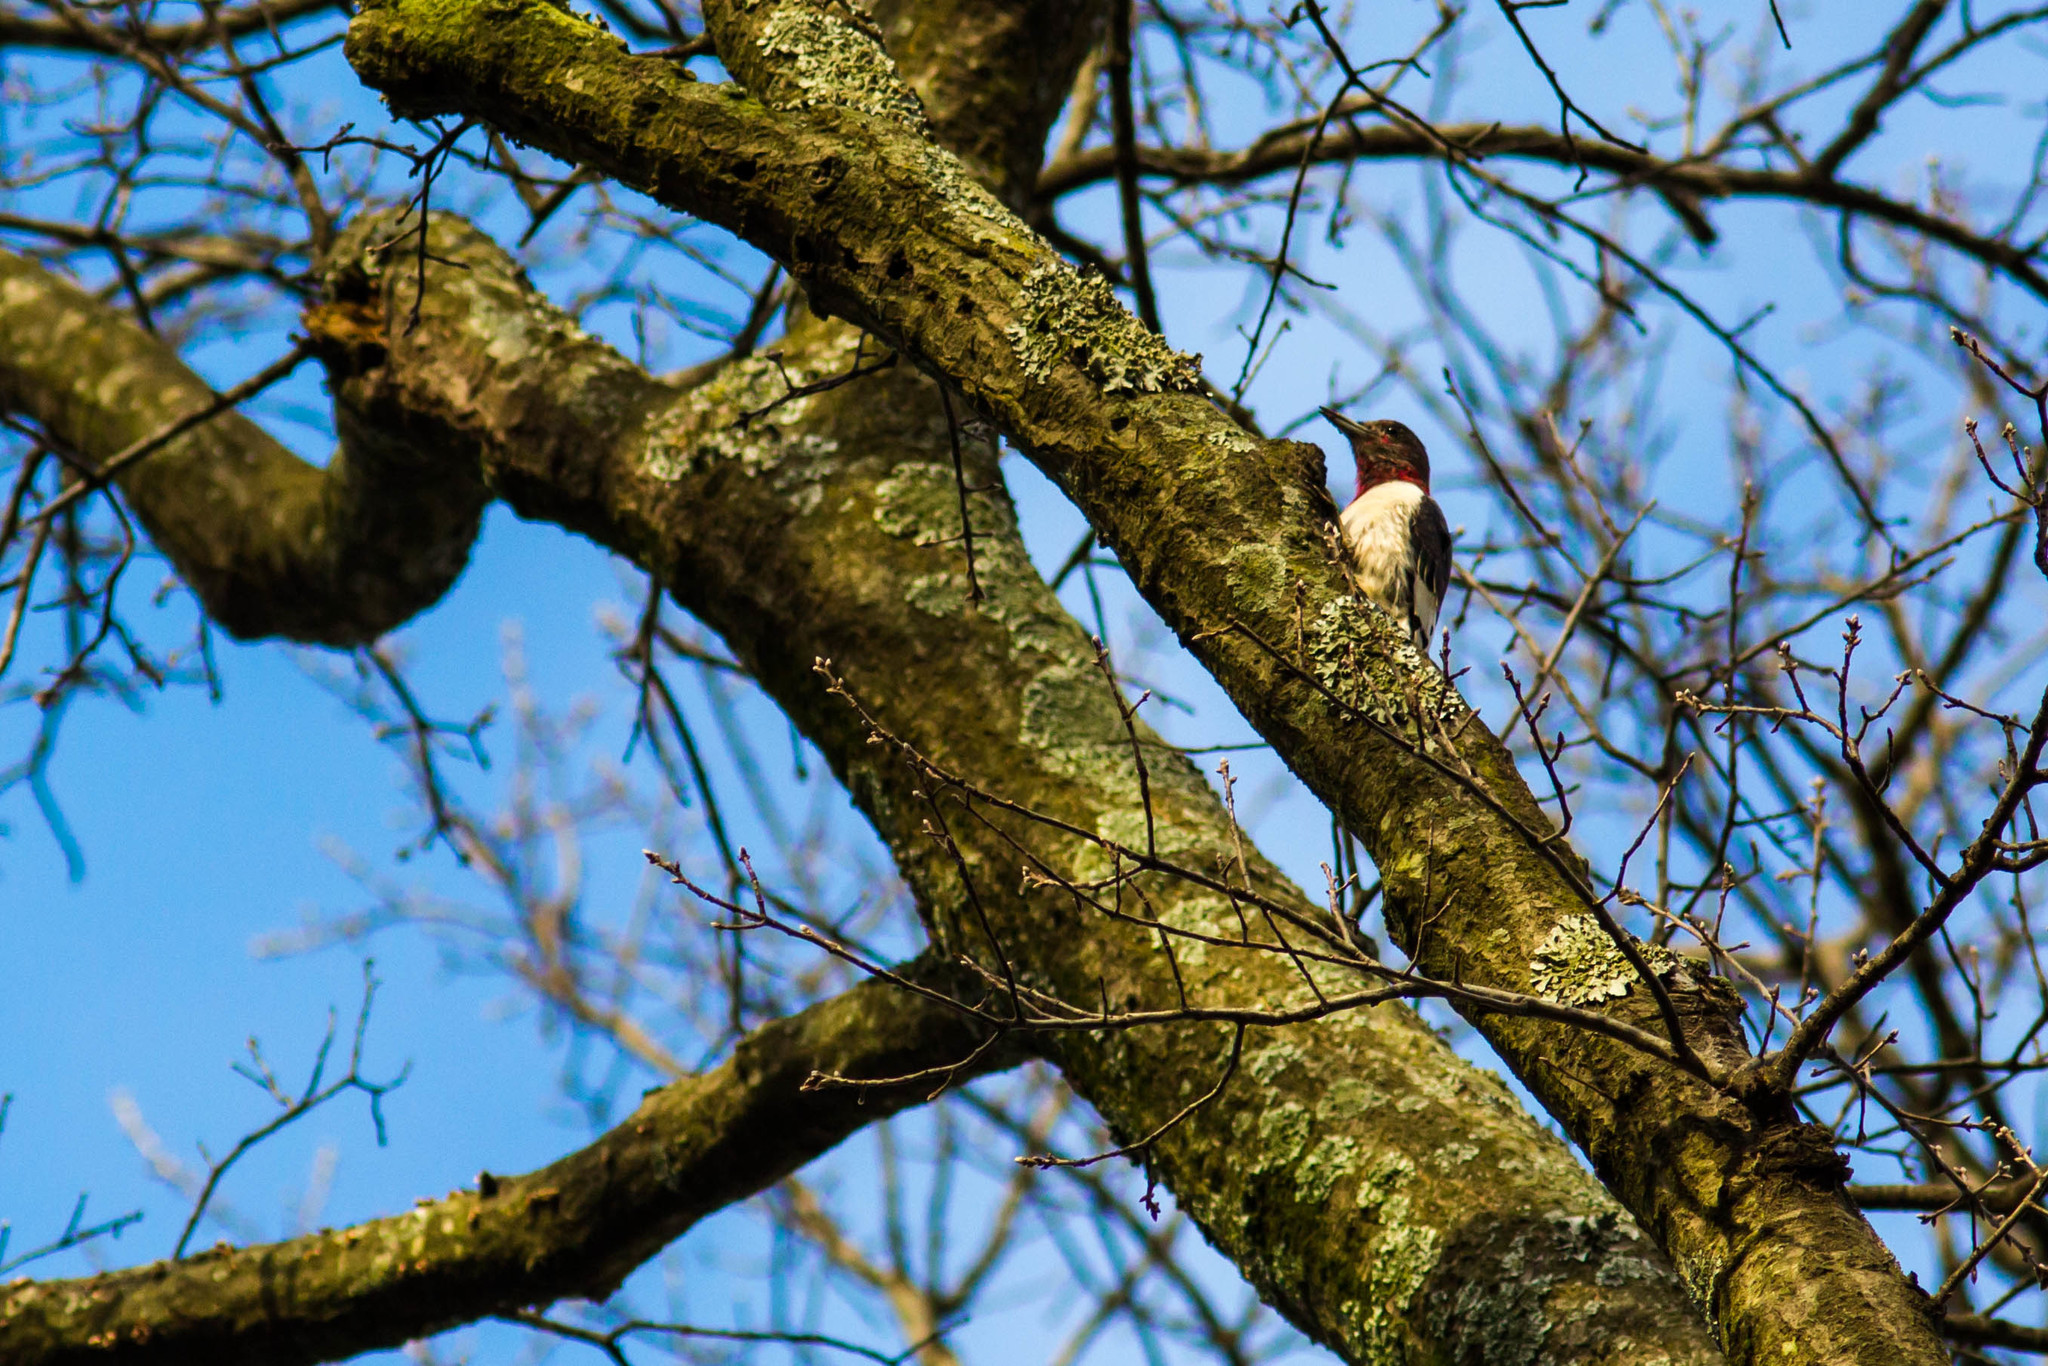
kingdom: Animalia
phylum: Chordata
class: Aves
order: Piciformes
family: Picidae
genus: Melanerpes
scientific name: Melanerpes erythrocephalus
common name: Red-headed woodpecker
